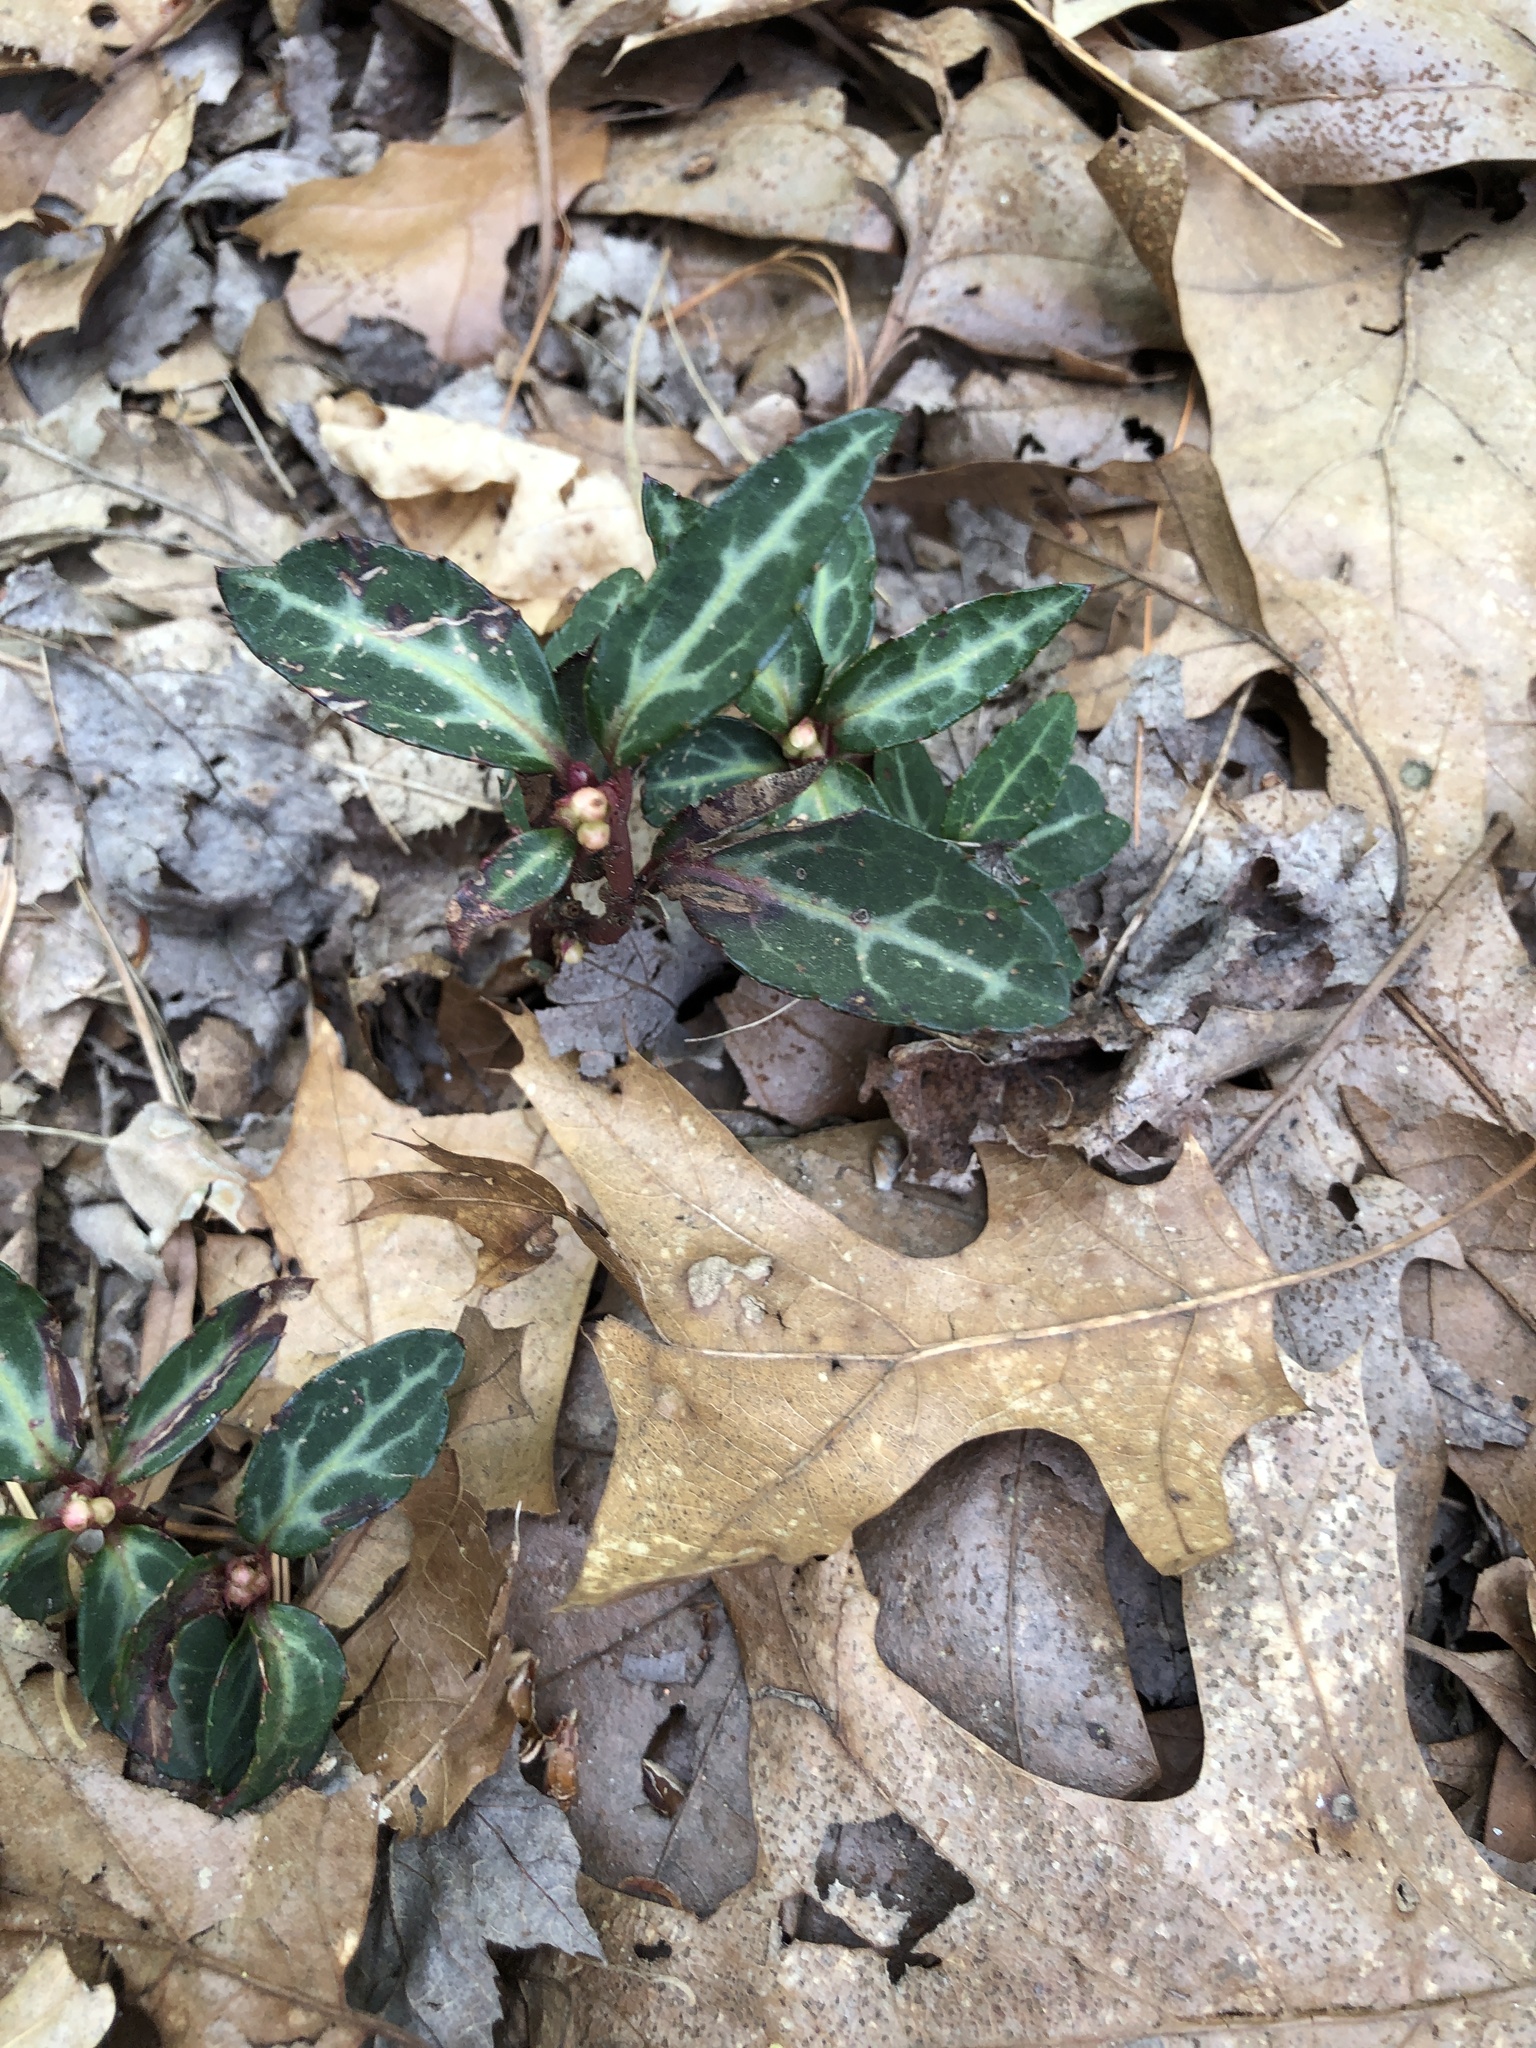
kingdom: Plantae
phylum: Tracheophyta
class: Magnoliopsida
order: Ericales
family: Ericaceae
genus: Chimaphila
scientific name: Chimaphila maculata
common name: Spotted pipsissewa
